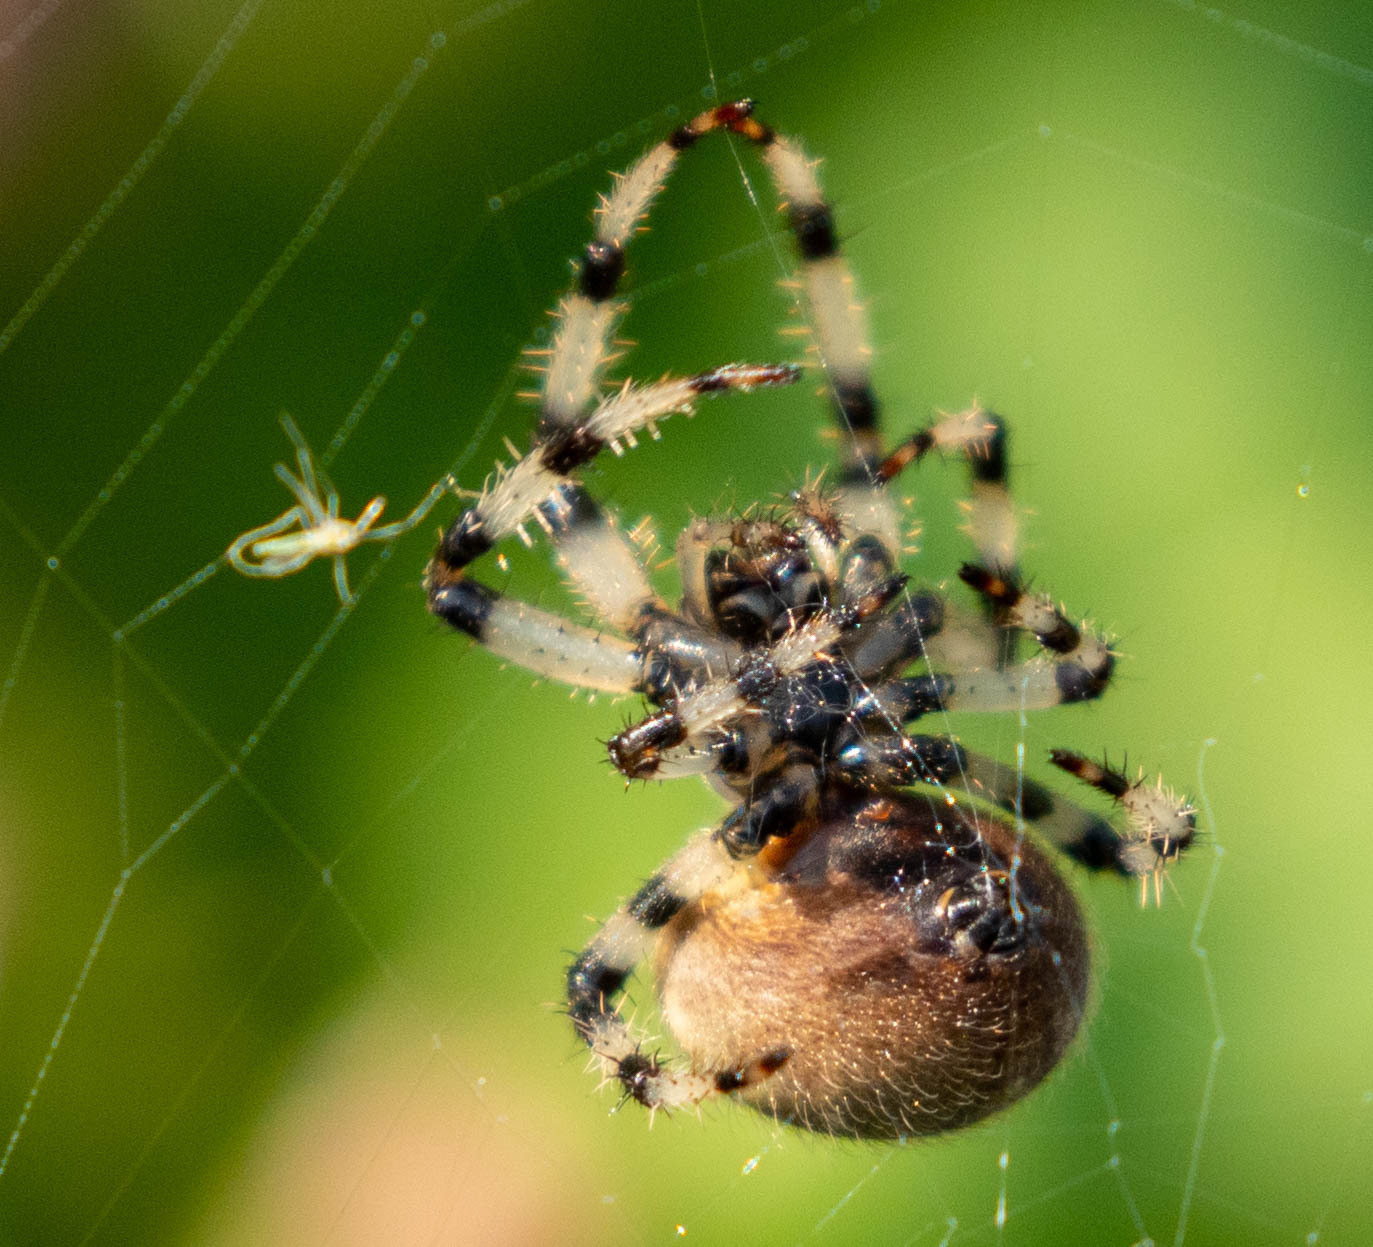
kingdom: Animalia
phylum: Arthropoda
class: Arachnida
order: Araneae
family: Araneidae
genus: Araneus
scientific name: Araneus trifolium
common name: Shamrock orbweaver
